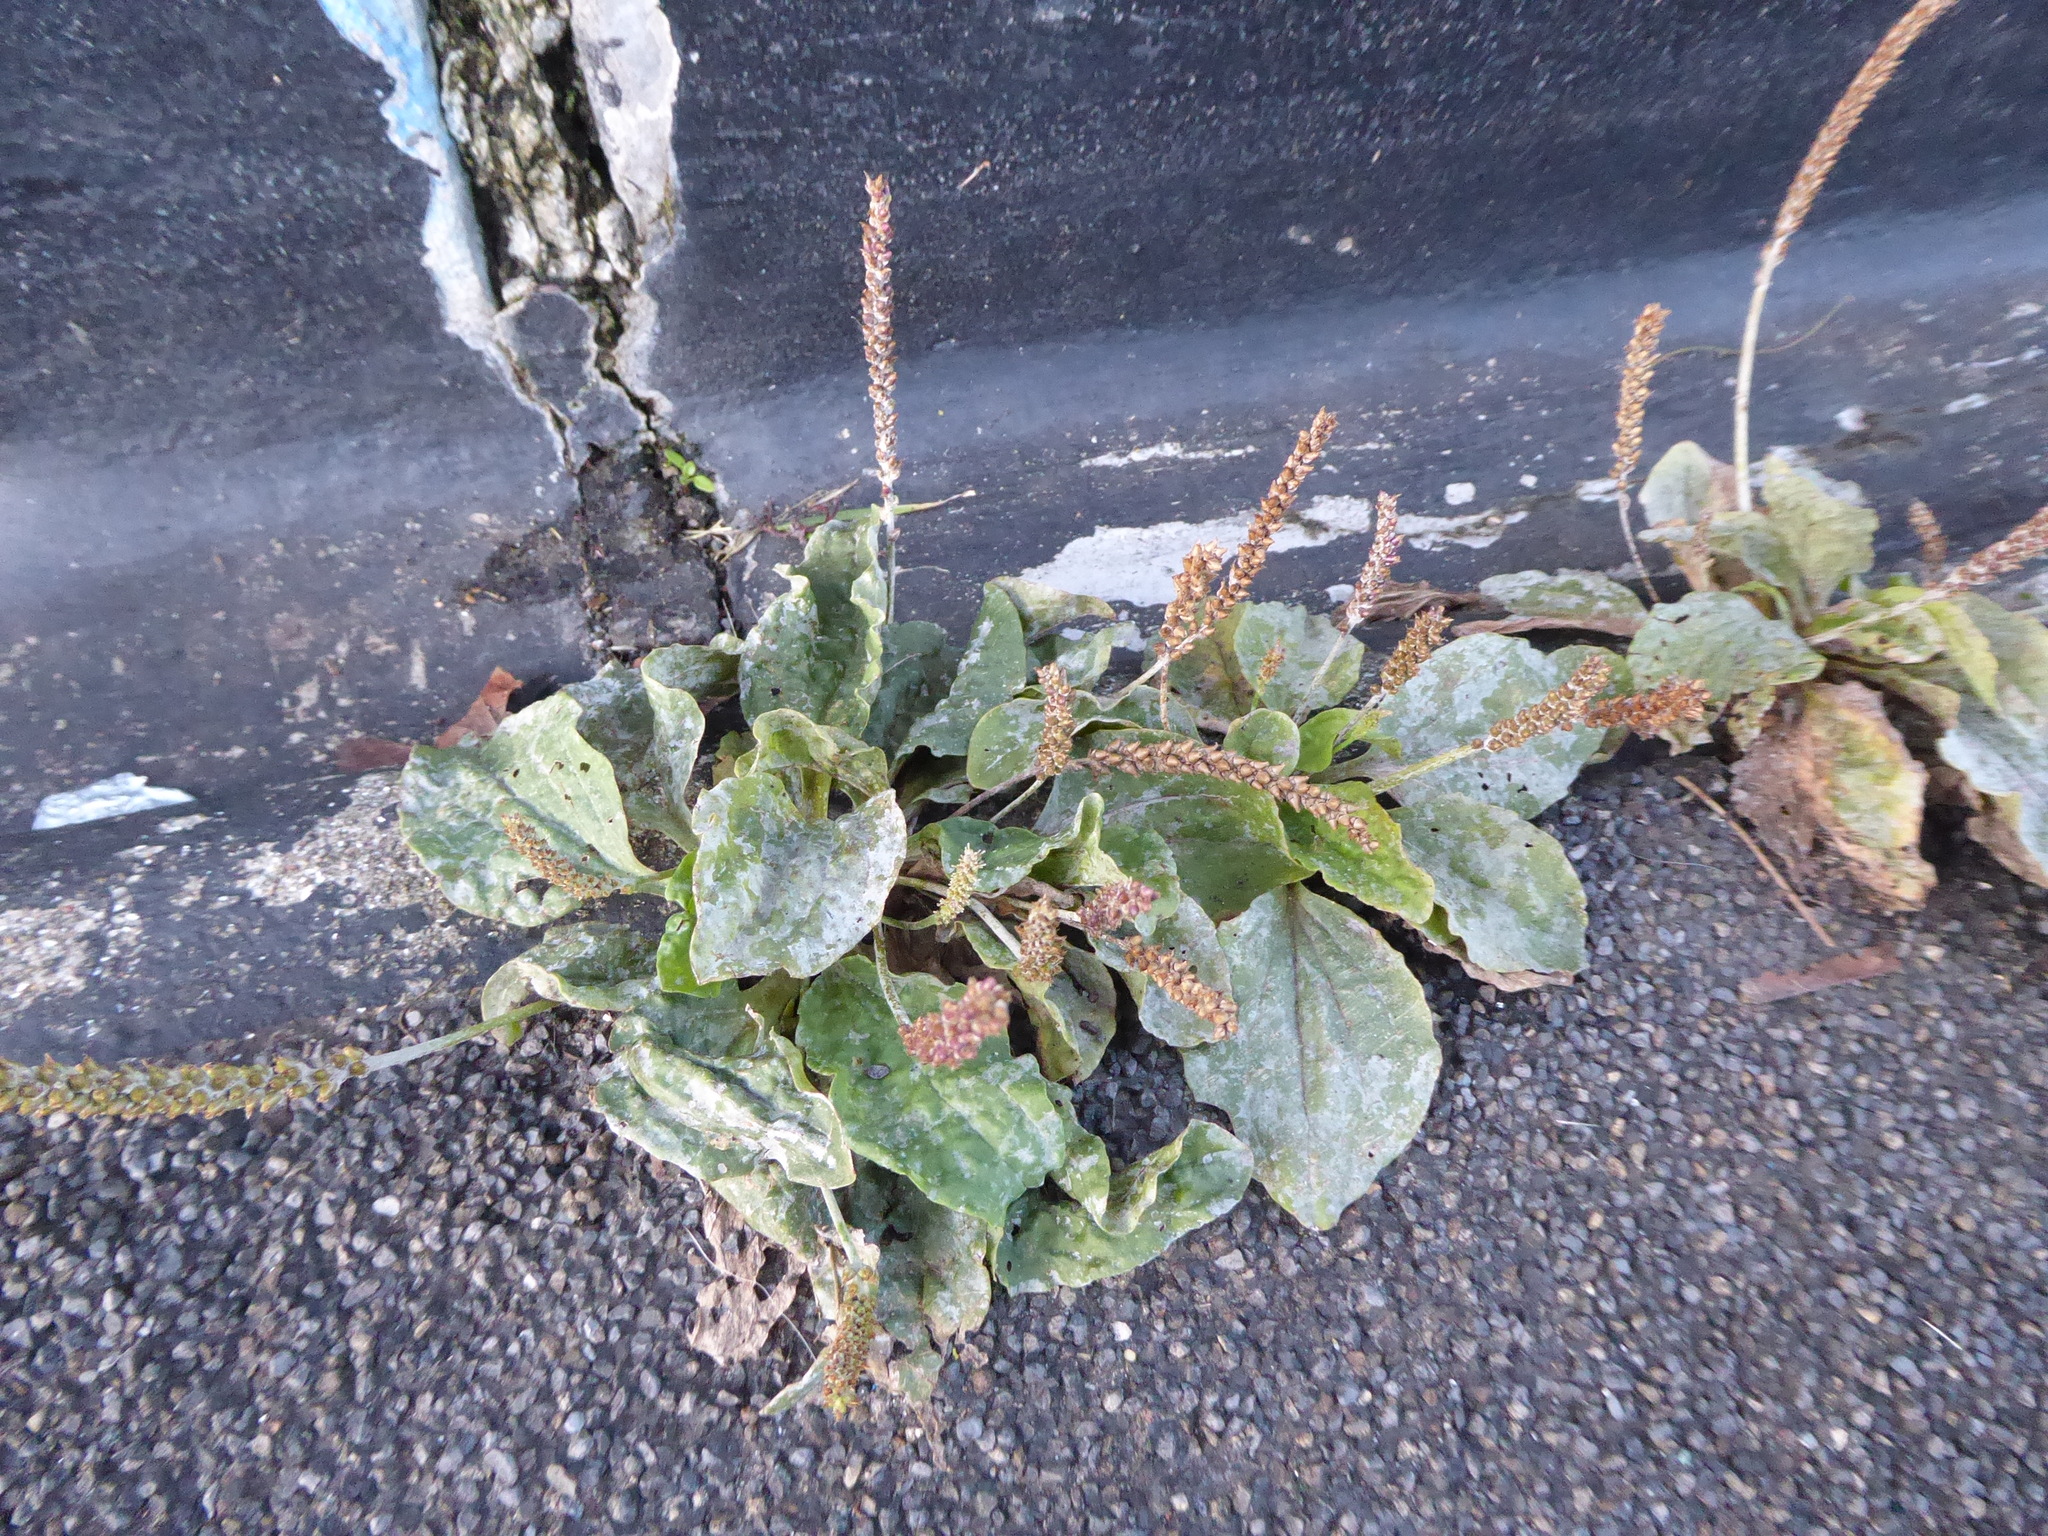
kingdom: Fungi
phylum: Ascomycota
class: Leotiomycetes
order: Helotiales
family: Erysiphaceae
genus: Golovinomyces
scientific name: Golovinomyces sordidus
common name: Plantain mildew
